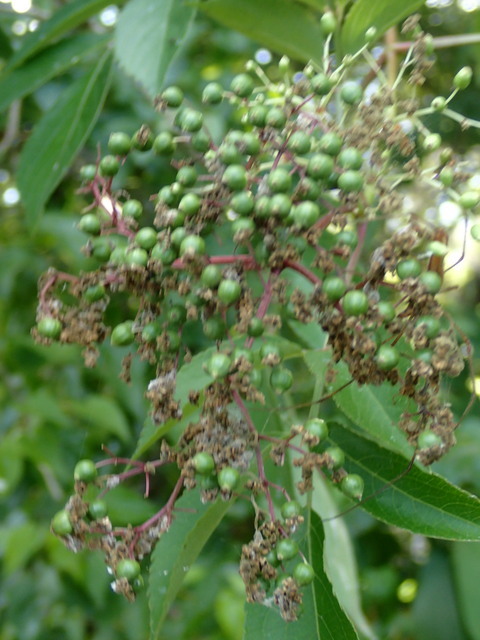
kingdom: Plantae
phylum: Tracheophyta
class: Magnoliopsida
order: Dipsacales
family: Viburnaceae
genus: Sambucus
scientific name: Sambucus canadensis
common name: American elder
